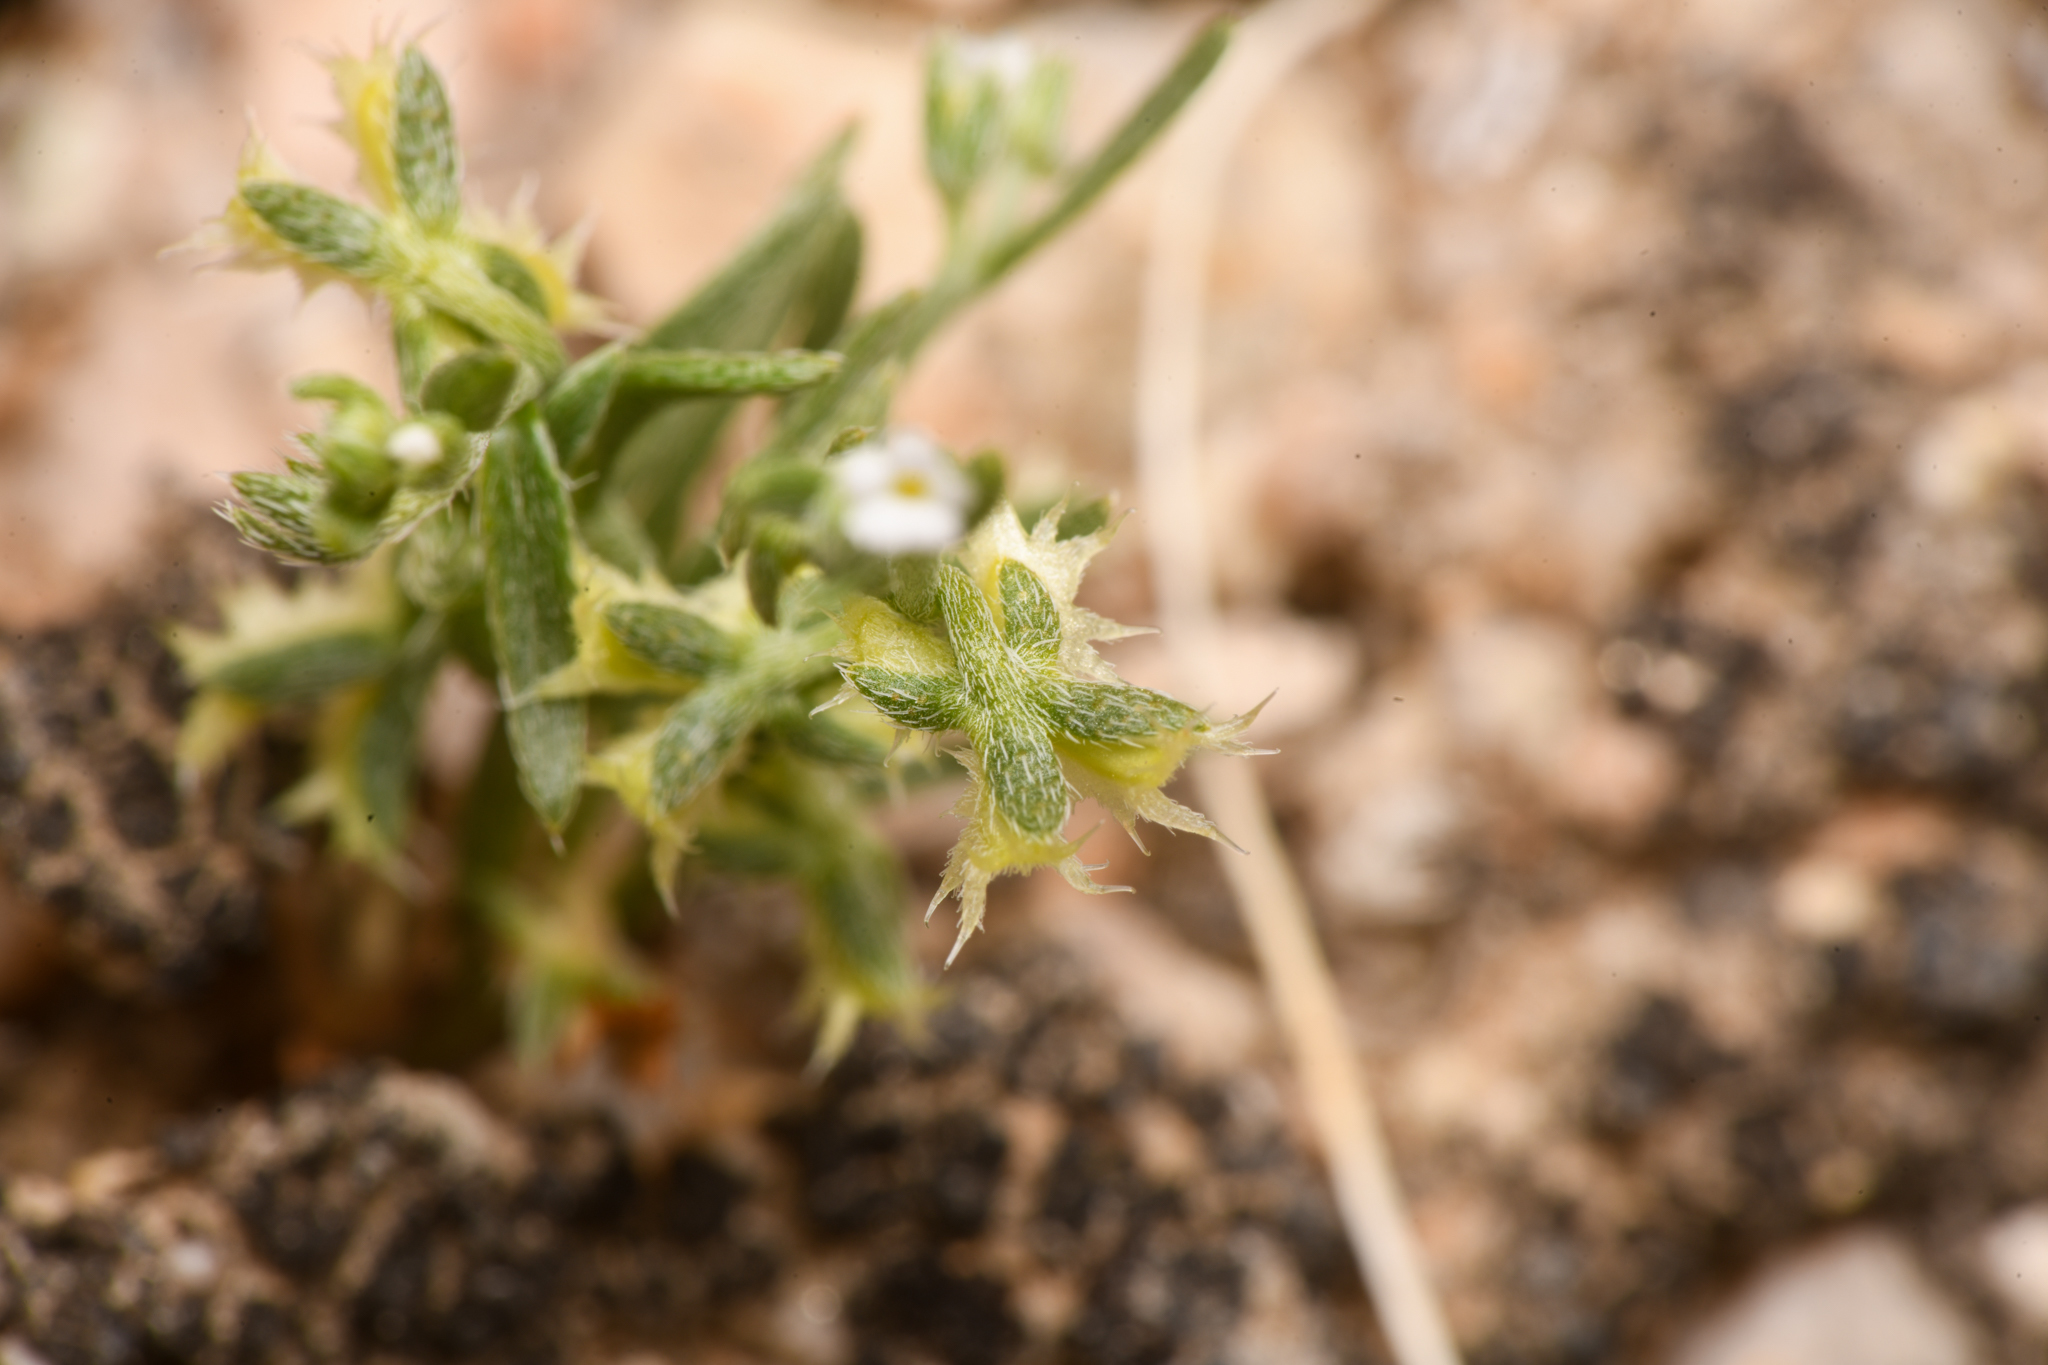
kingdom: Plantae
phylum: Tracheophyta
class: Magnoliopsida
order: Boraginales
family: Boraginaceae
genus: Pectocarya
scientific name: Pectocarya platycarpa
